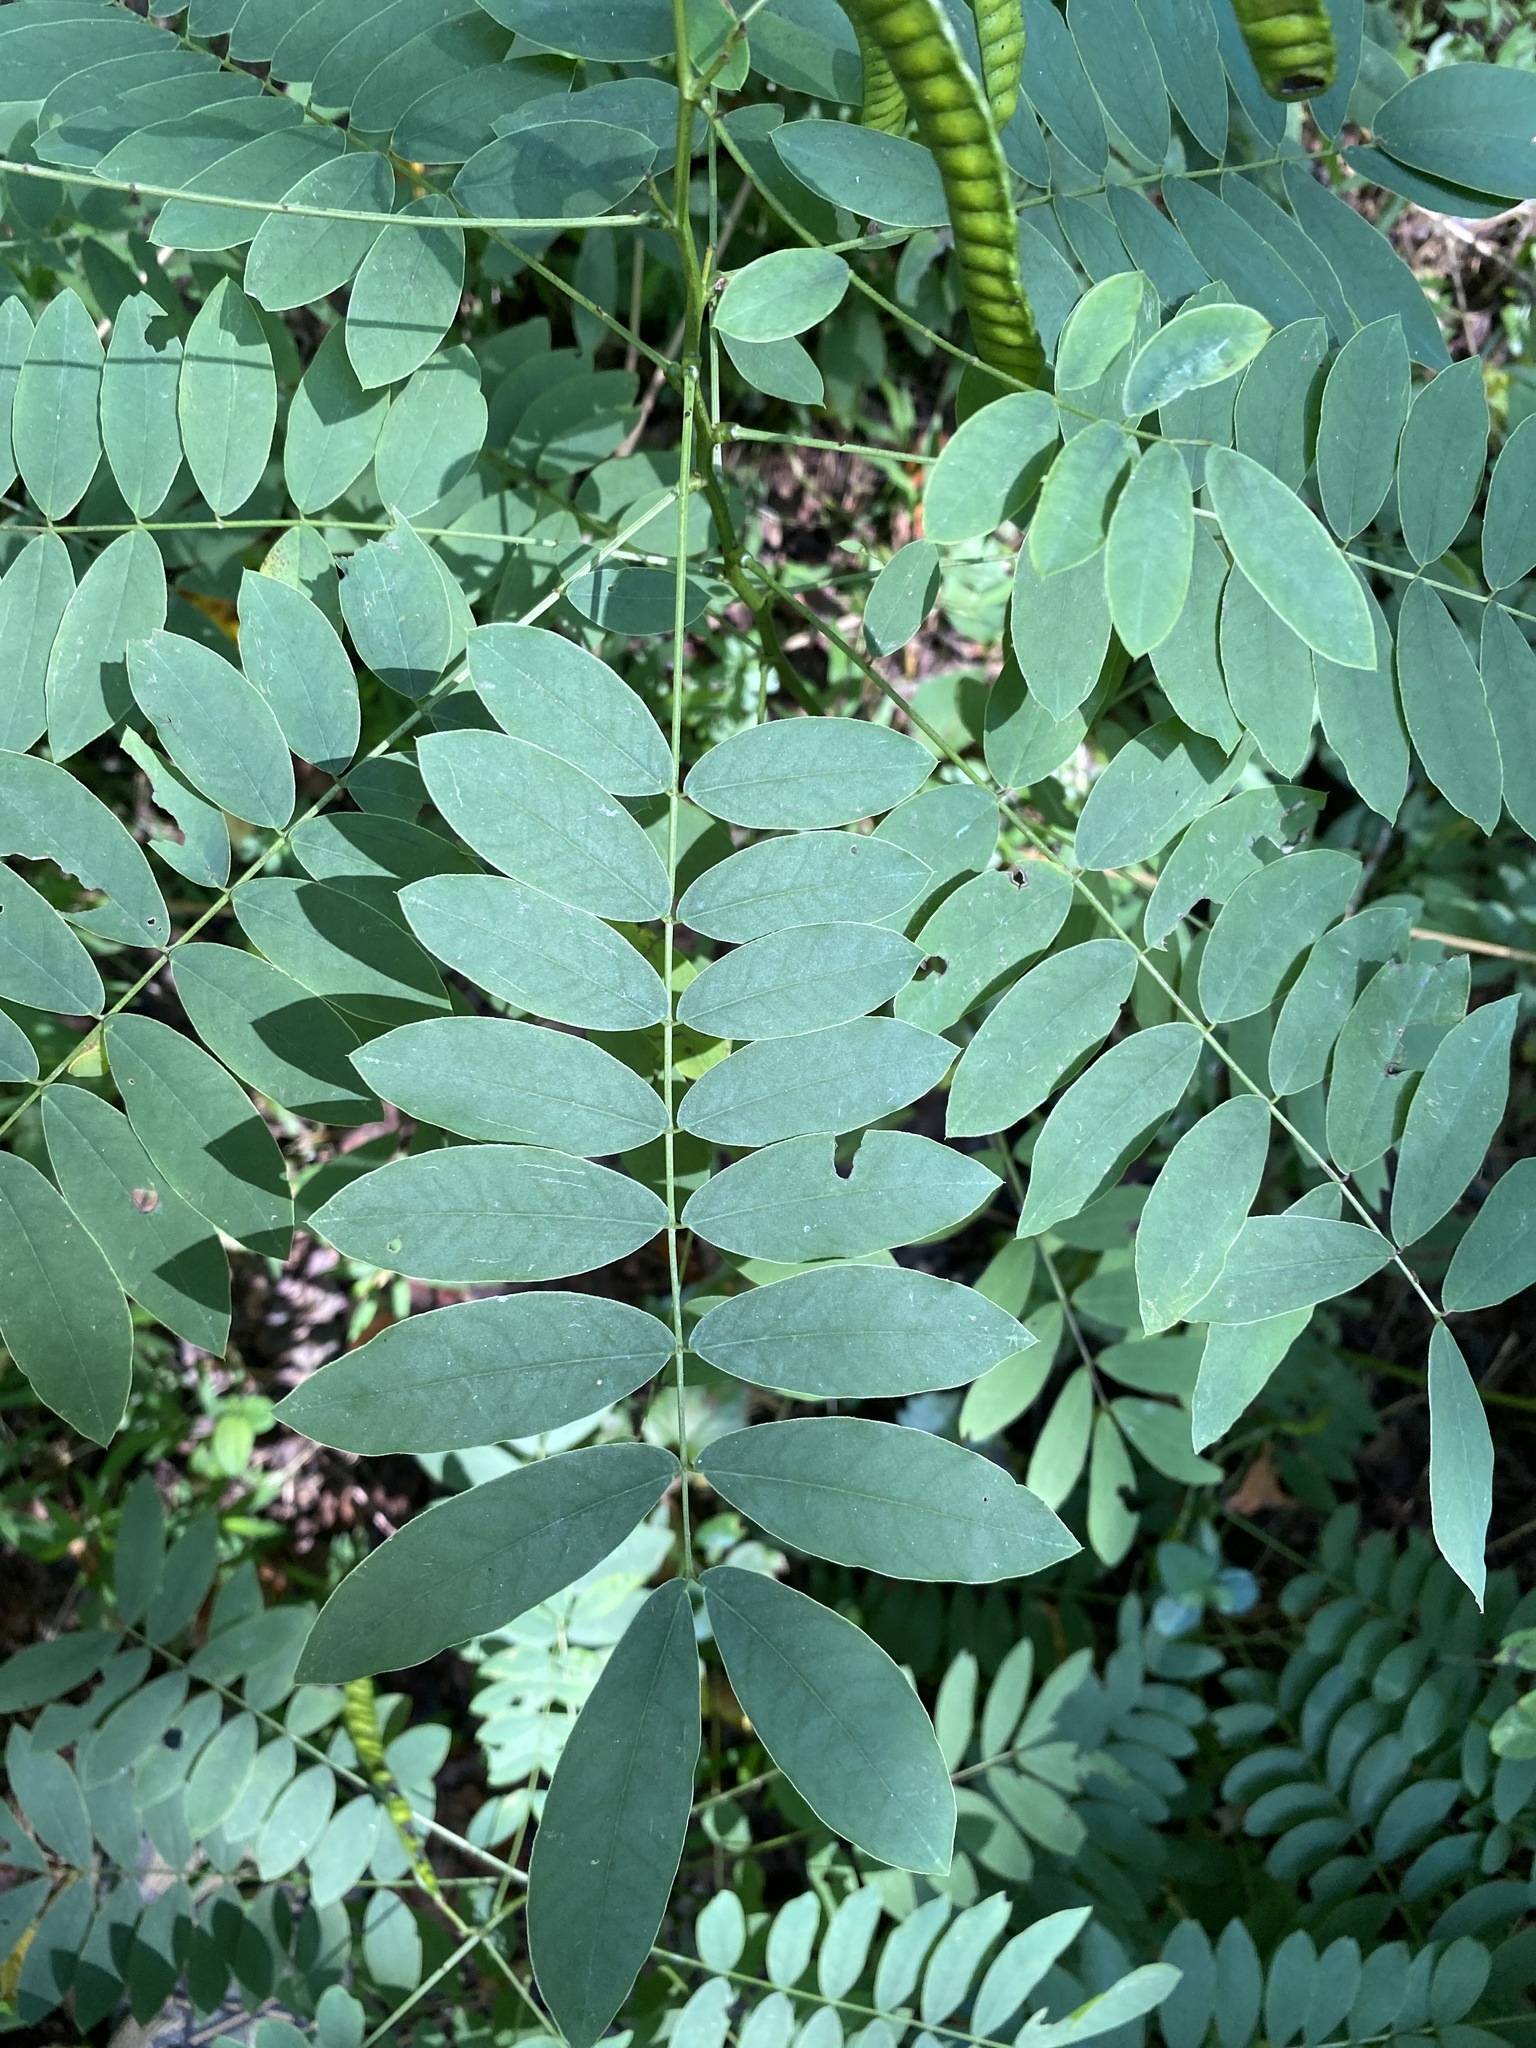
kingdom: Plantae
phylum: Tracheophyta
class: Magnoliopsida
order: Fabales
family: Fabaceae
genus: Senna
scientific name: Senna marilandica
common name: American senna
